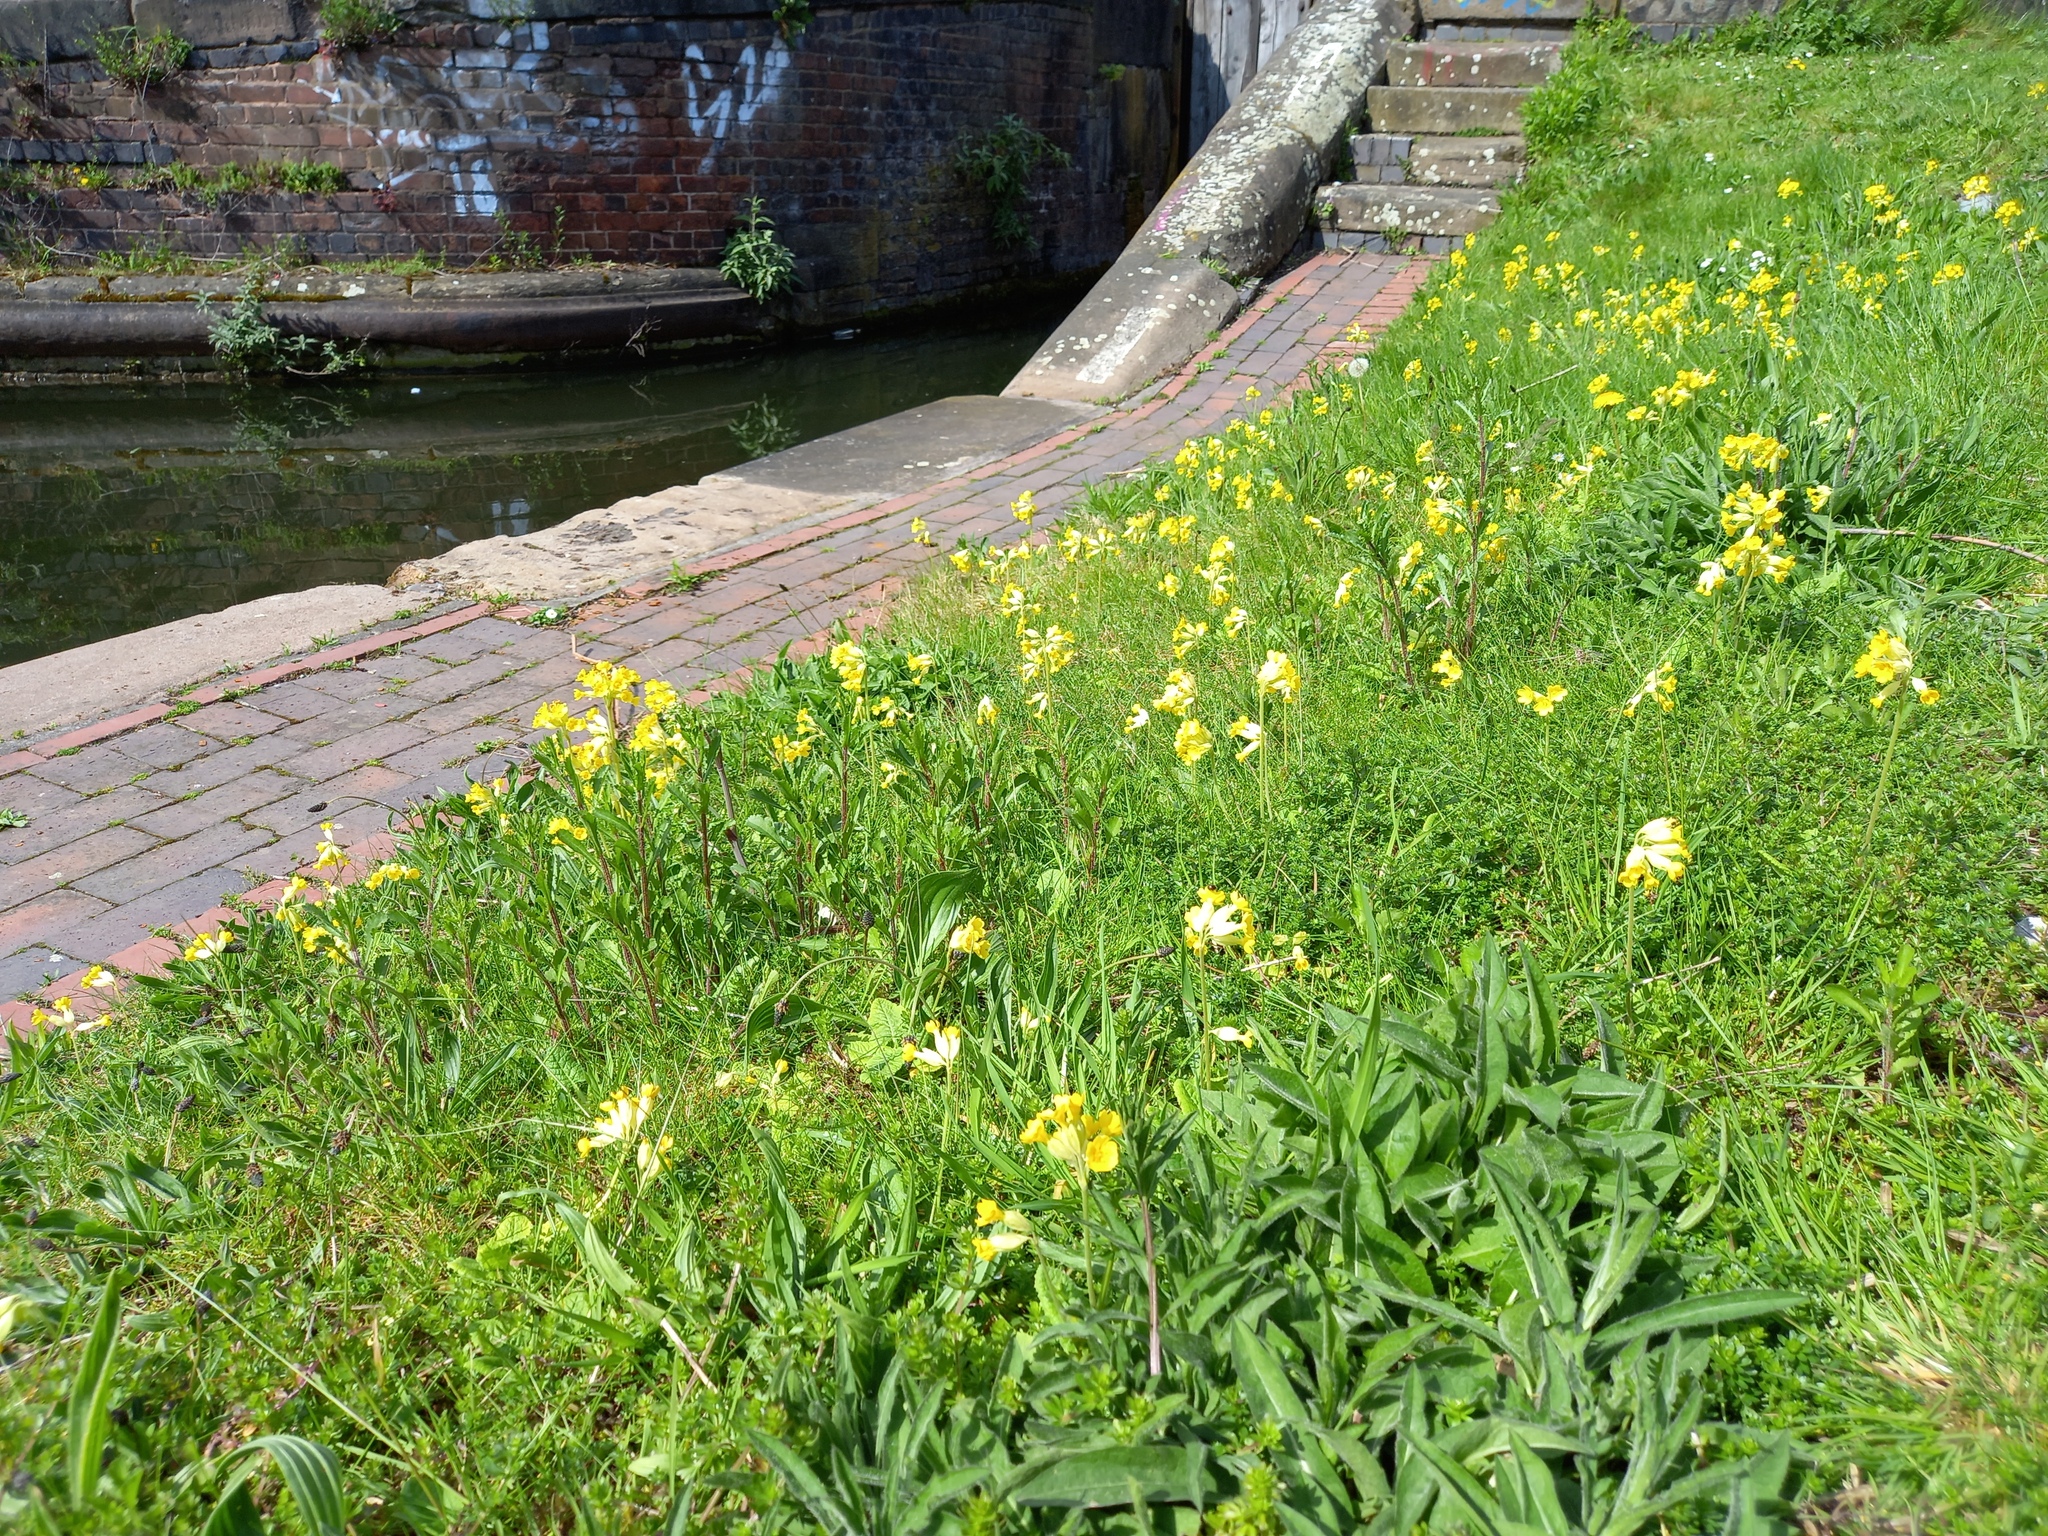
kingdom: Plantae
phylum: Tracheophyta
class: Magnoliopsida
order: Ericales
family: Primulaceae
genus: Primula
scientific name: Primula veris
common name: Cowslip
